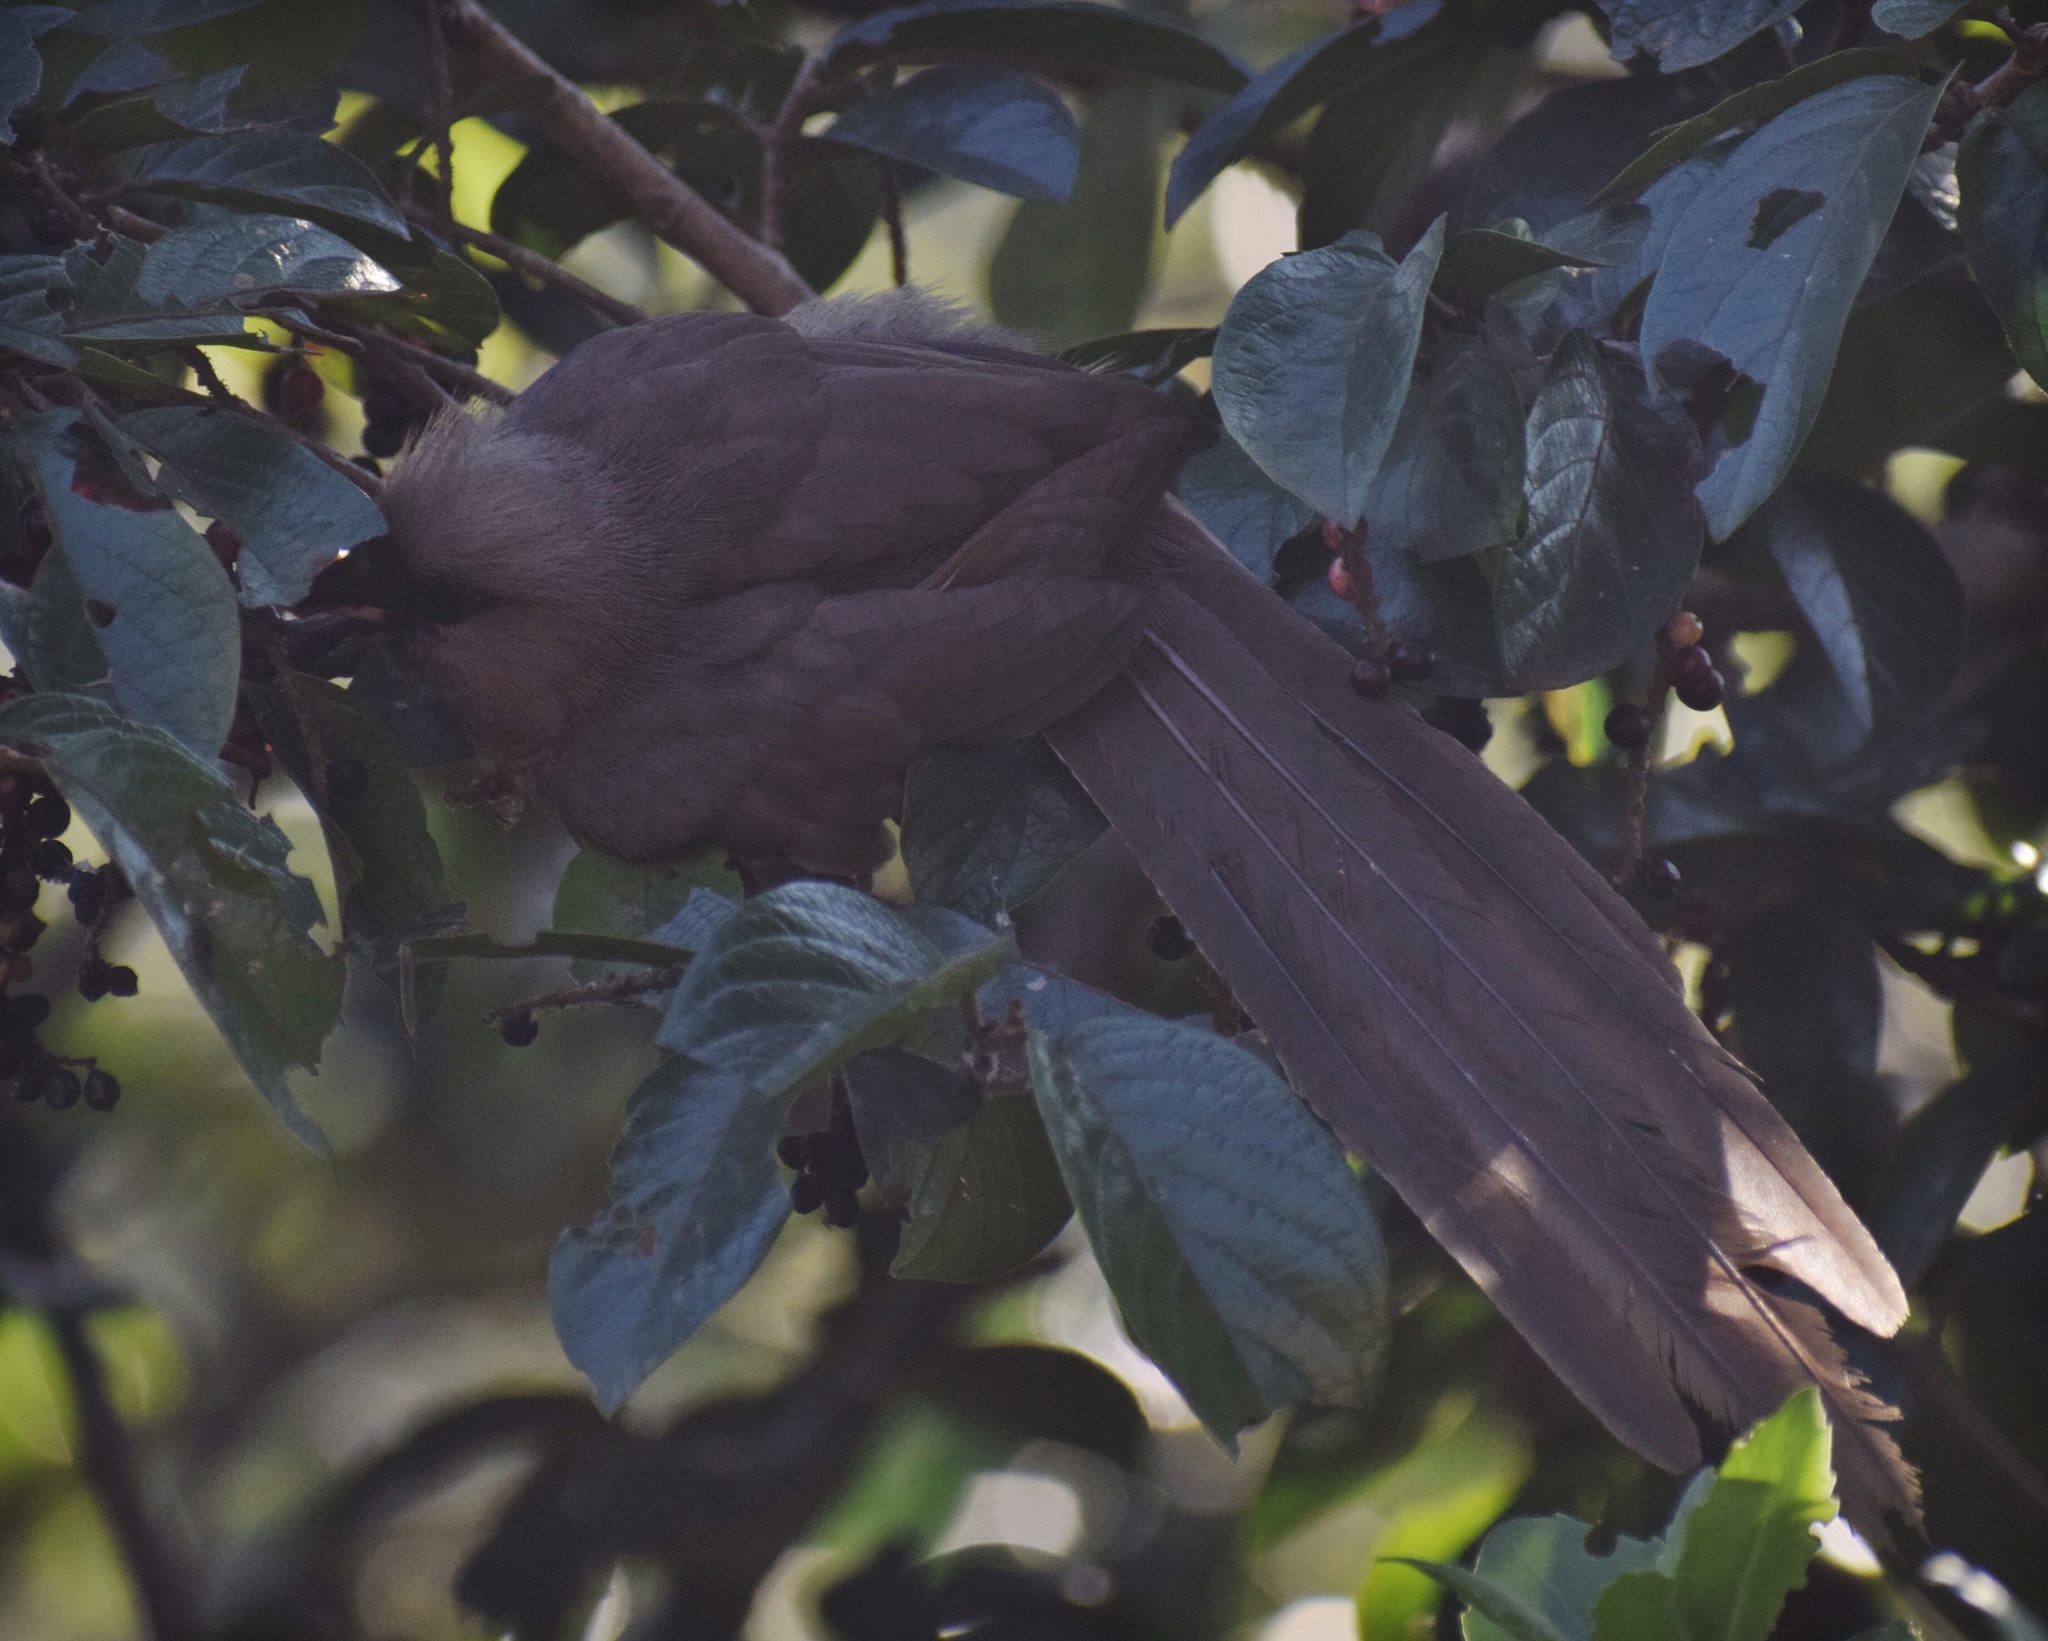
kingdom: Animalia
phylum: Chordata
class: Aves
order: Coliiformes
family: Coliidae
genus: Colius
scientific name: Colius striatus
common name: Speckled mousebird
